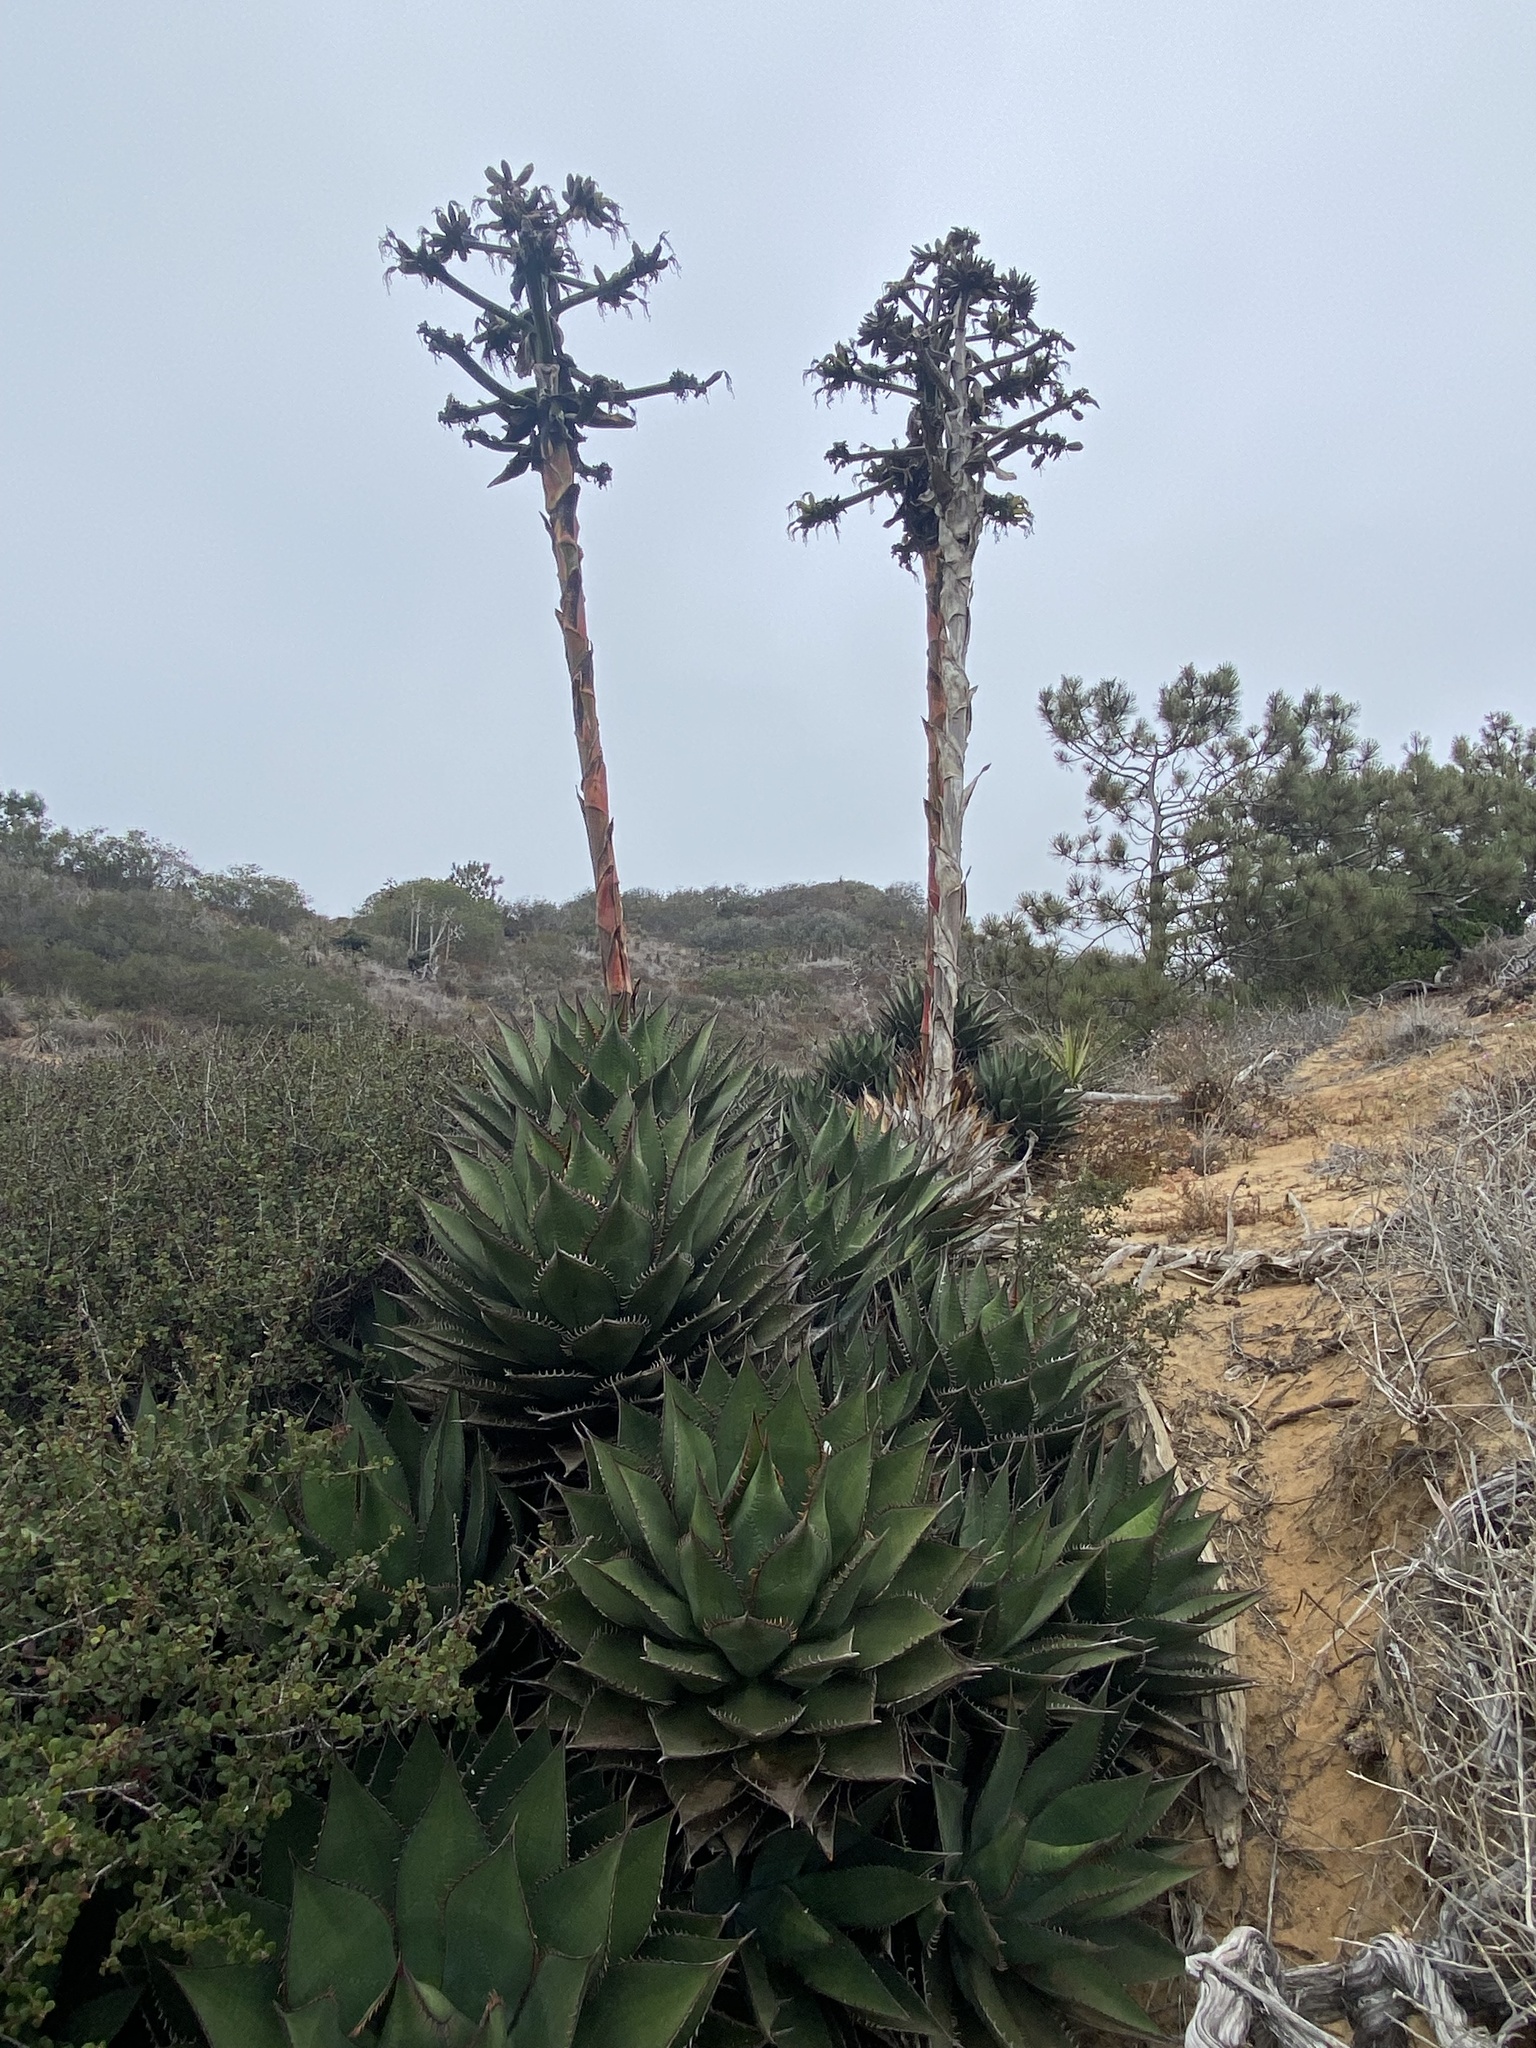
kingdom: Plantae
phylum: Tracheophyta
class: Liliopsida
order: Asparagales
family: Asparagaceae
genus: Agave
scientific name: Agave shawii
